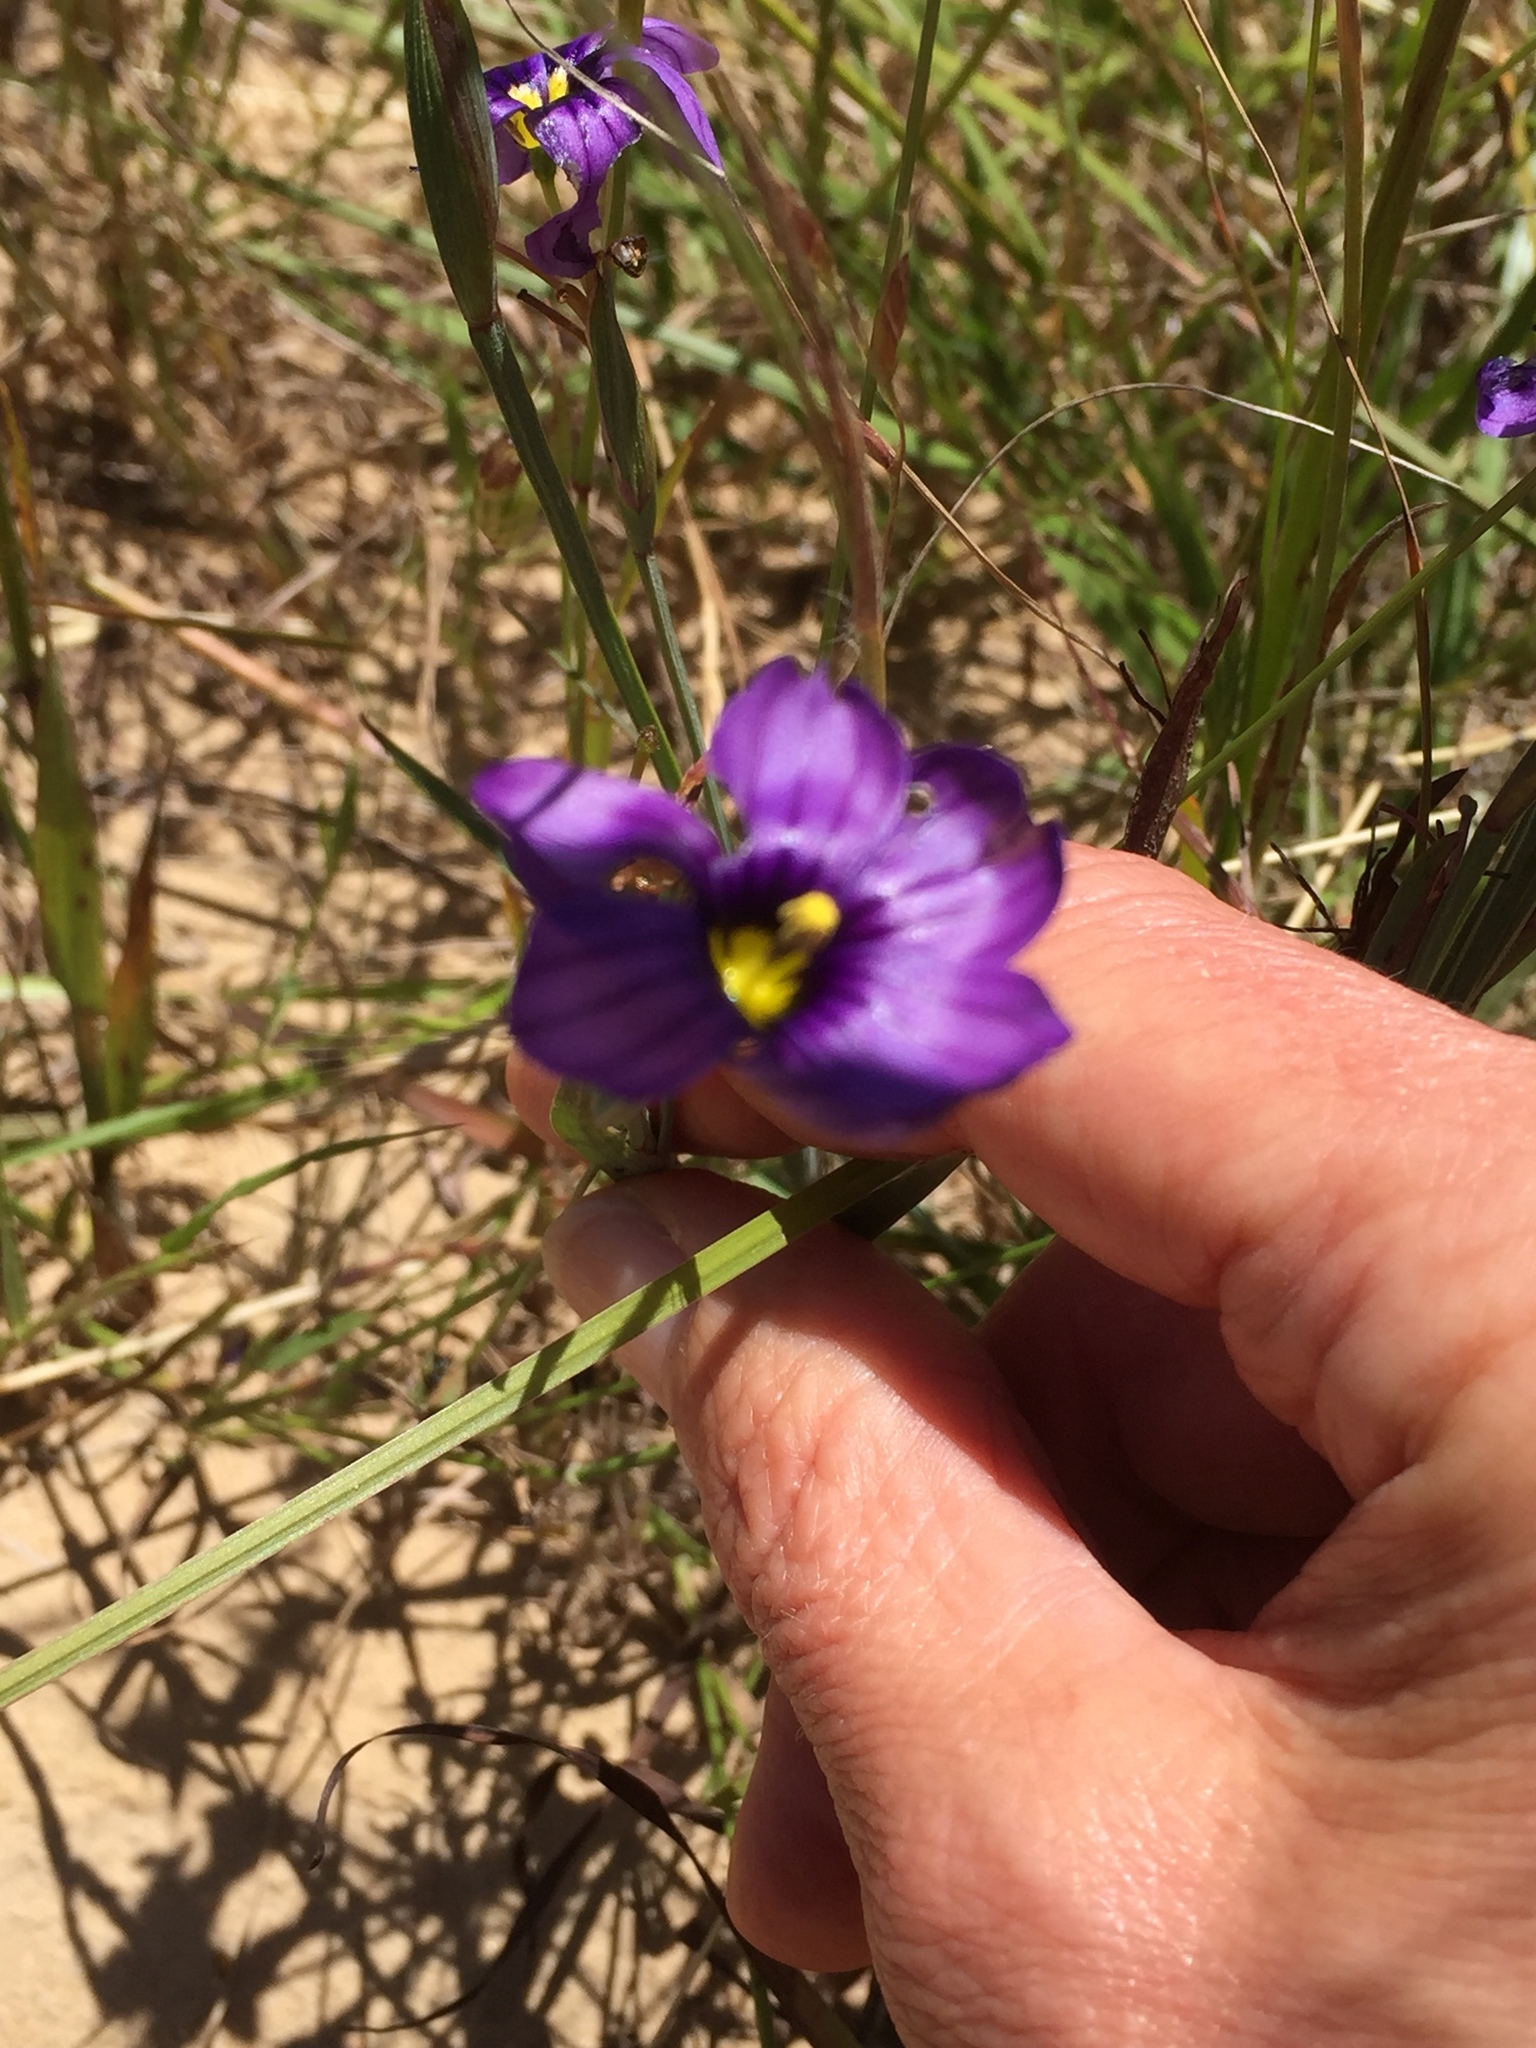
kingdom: Plantae
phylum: Tracheophyta
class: Liliopsida
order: Asparagales
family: Iridaceae
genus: Sisyrinchium
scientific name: Sisyrinchium bellum
